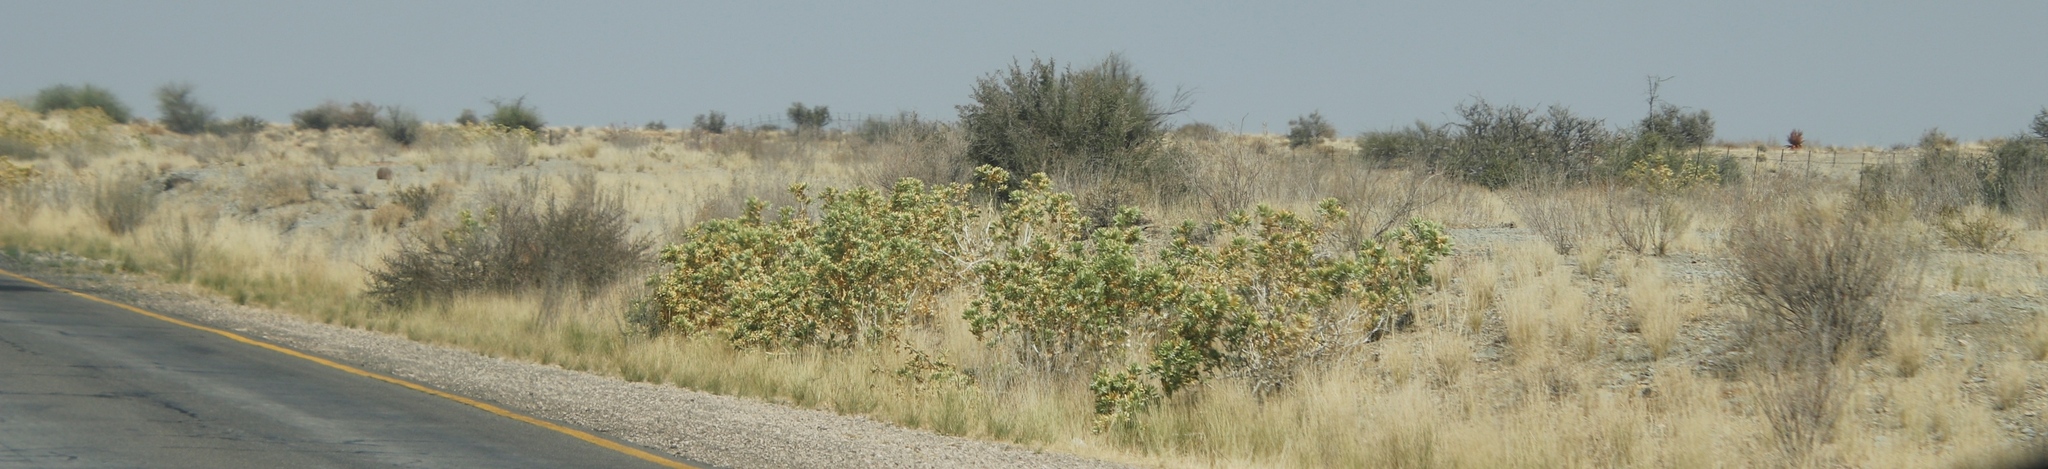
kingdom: Plantae
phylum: Tracheophyta
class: Magnoliopsida
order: Cornales
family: Loasaceae
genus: Kissenia
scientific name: Kissenia capensis
